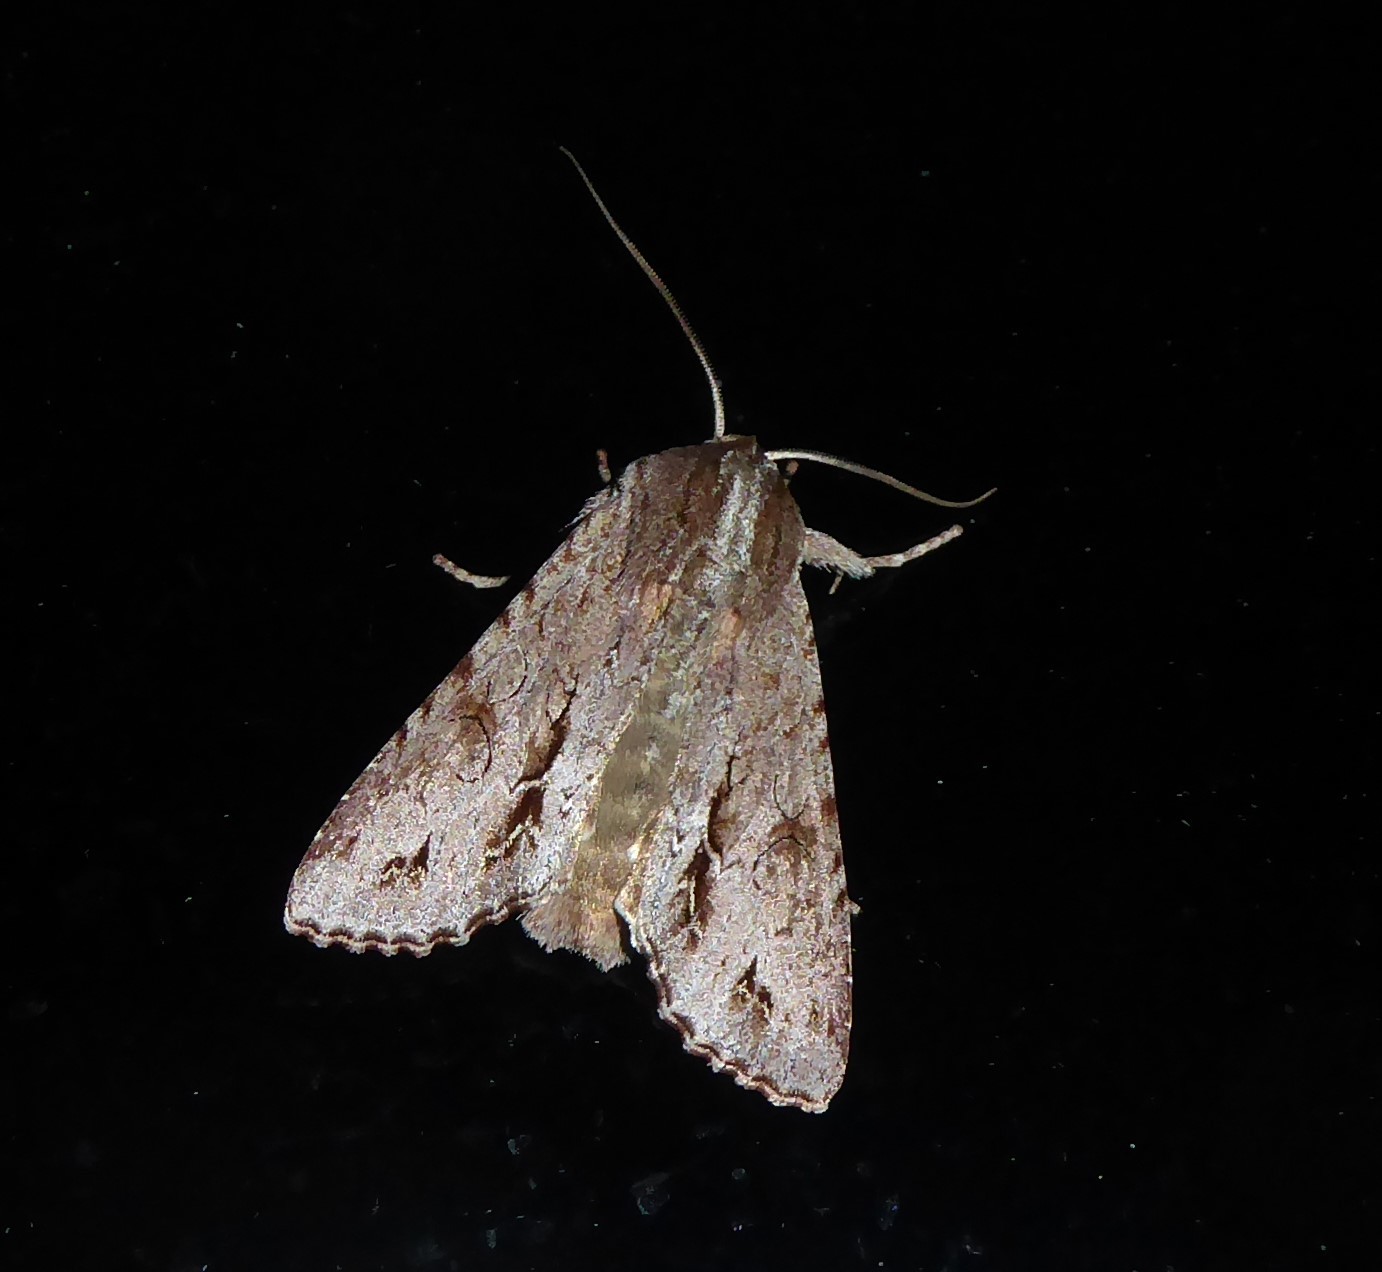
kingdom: Animalia
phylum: Arthropoda
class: Insecta
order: Lepidoptera
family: Noctuidae
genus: Ichneutica
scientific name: Ichneutica
